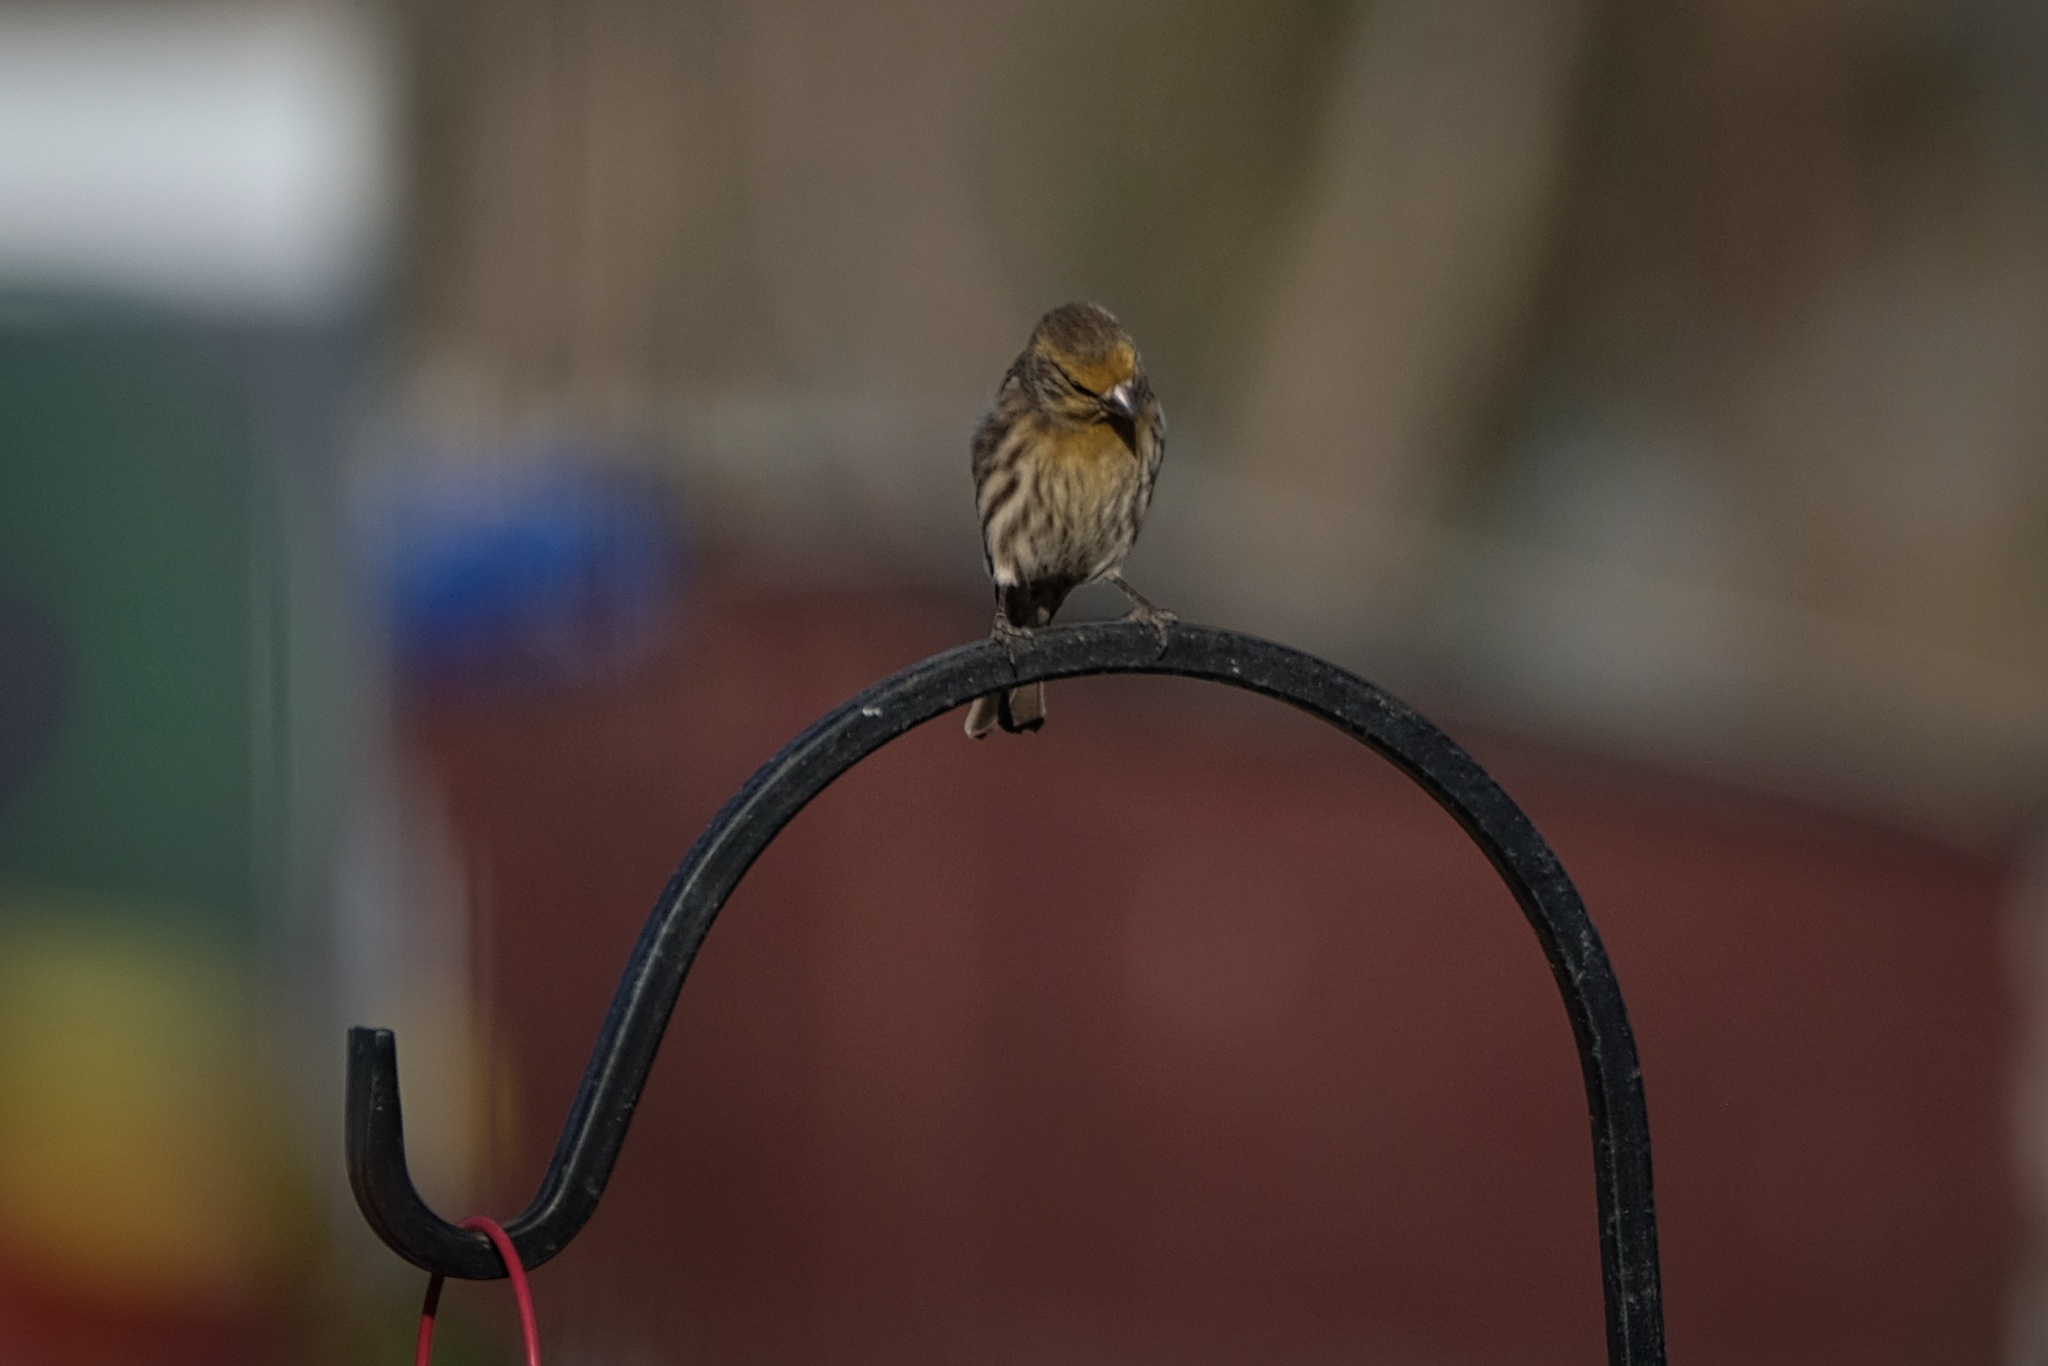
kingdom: Animalia
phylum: Chordata
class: Aves
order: Passeriformes
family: Fringillidae
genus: Haemorhous
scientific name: Haemorhous mexicanus
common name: House finch
